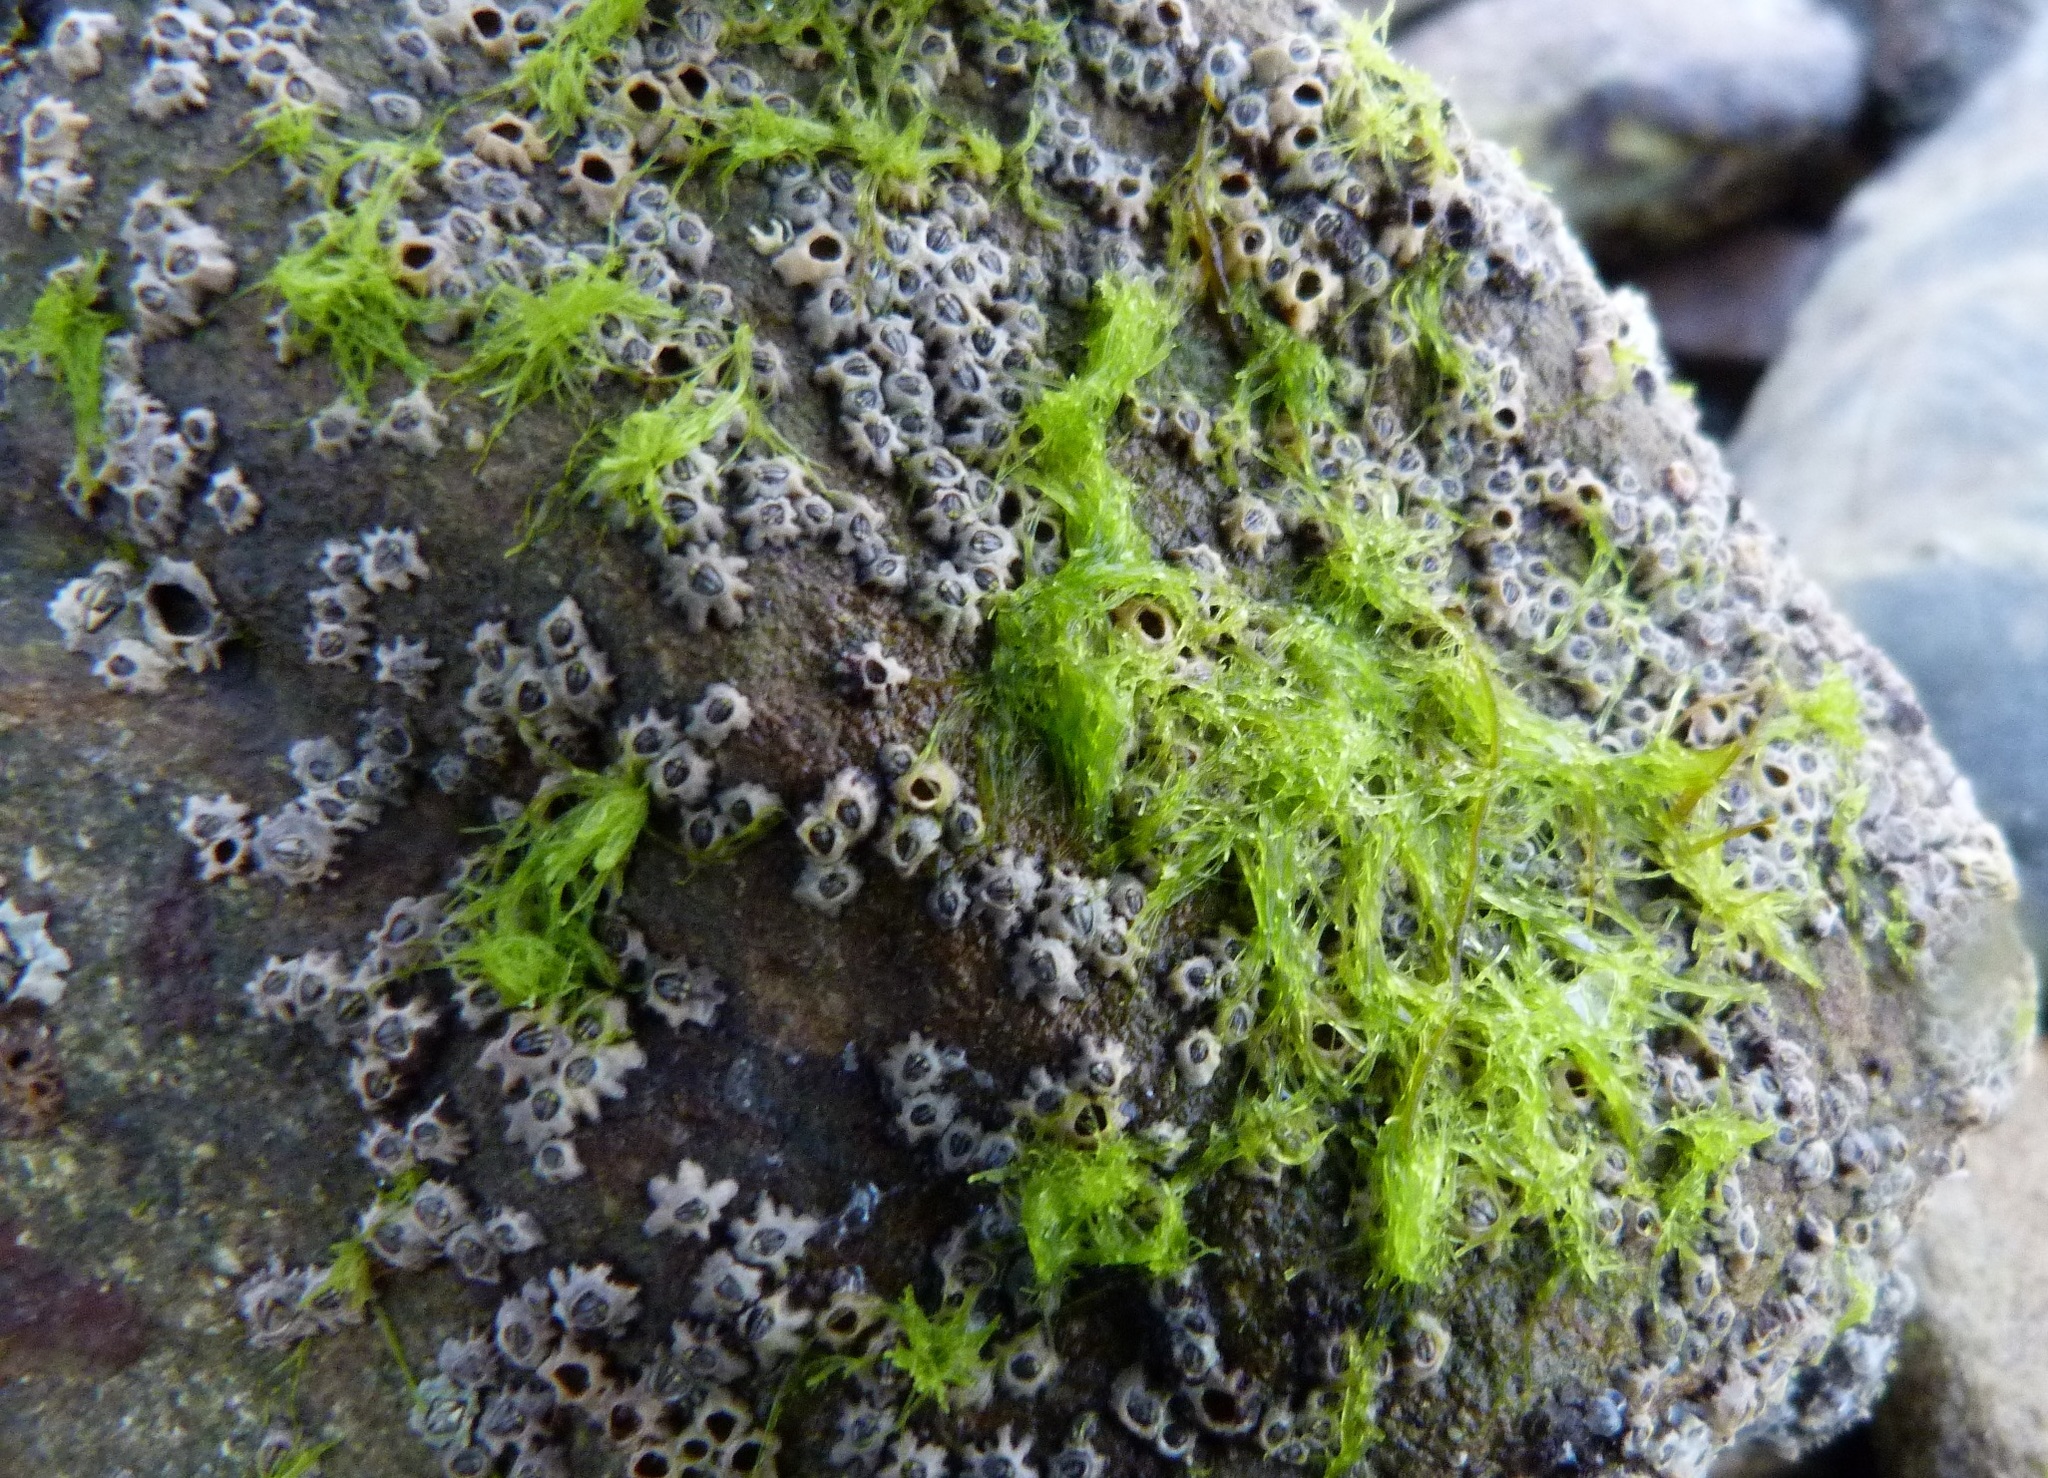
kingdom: Plantae
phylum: Chlorophyta
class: Ulvophyceae
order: Ulvales
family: Ulvaceae
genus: Ulva
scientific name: Ulva intestinalis
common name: Gut weed
